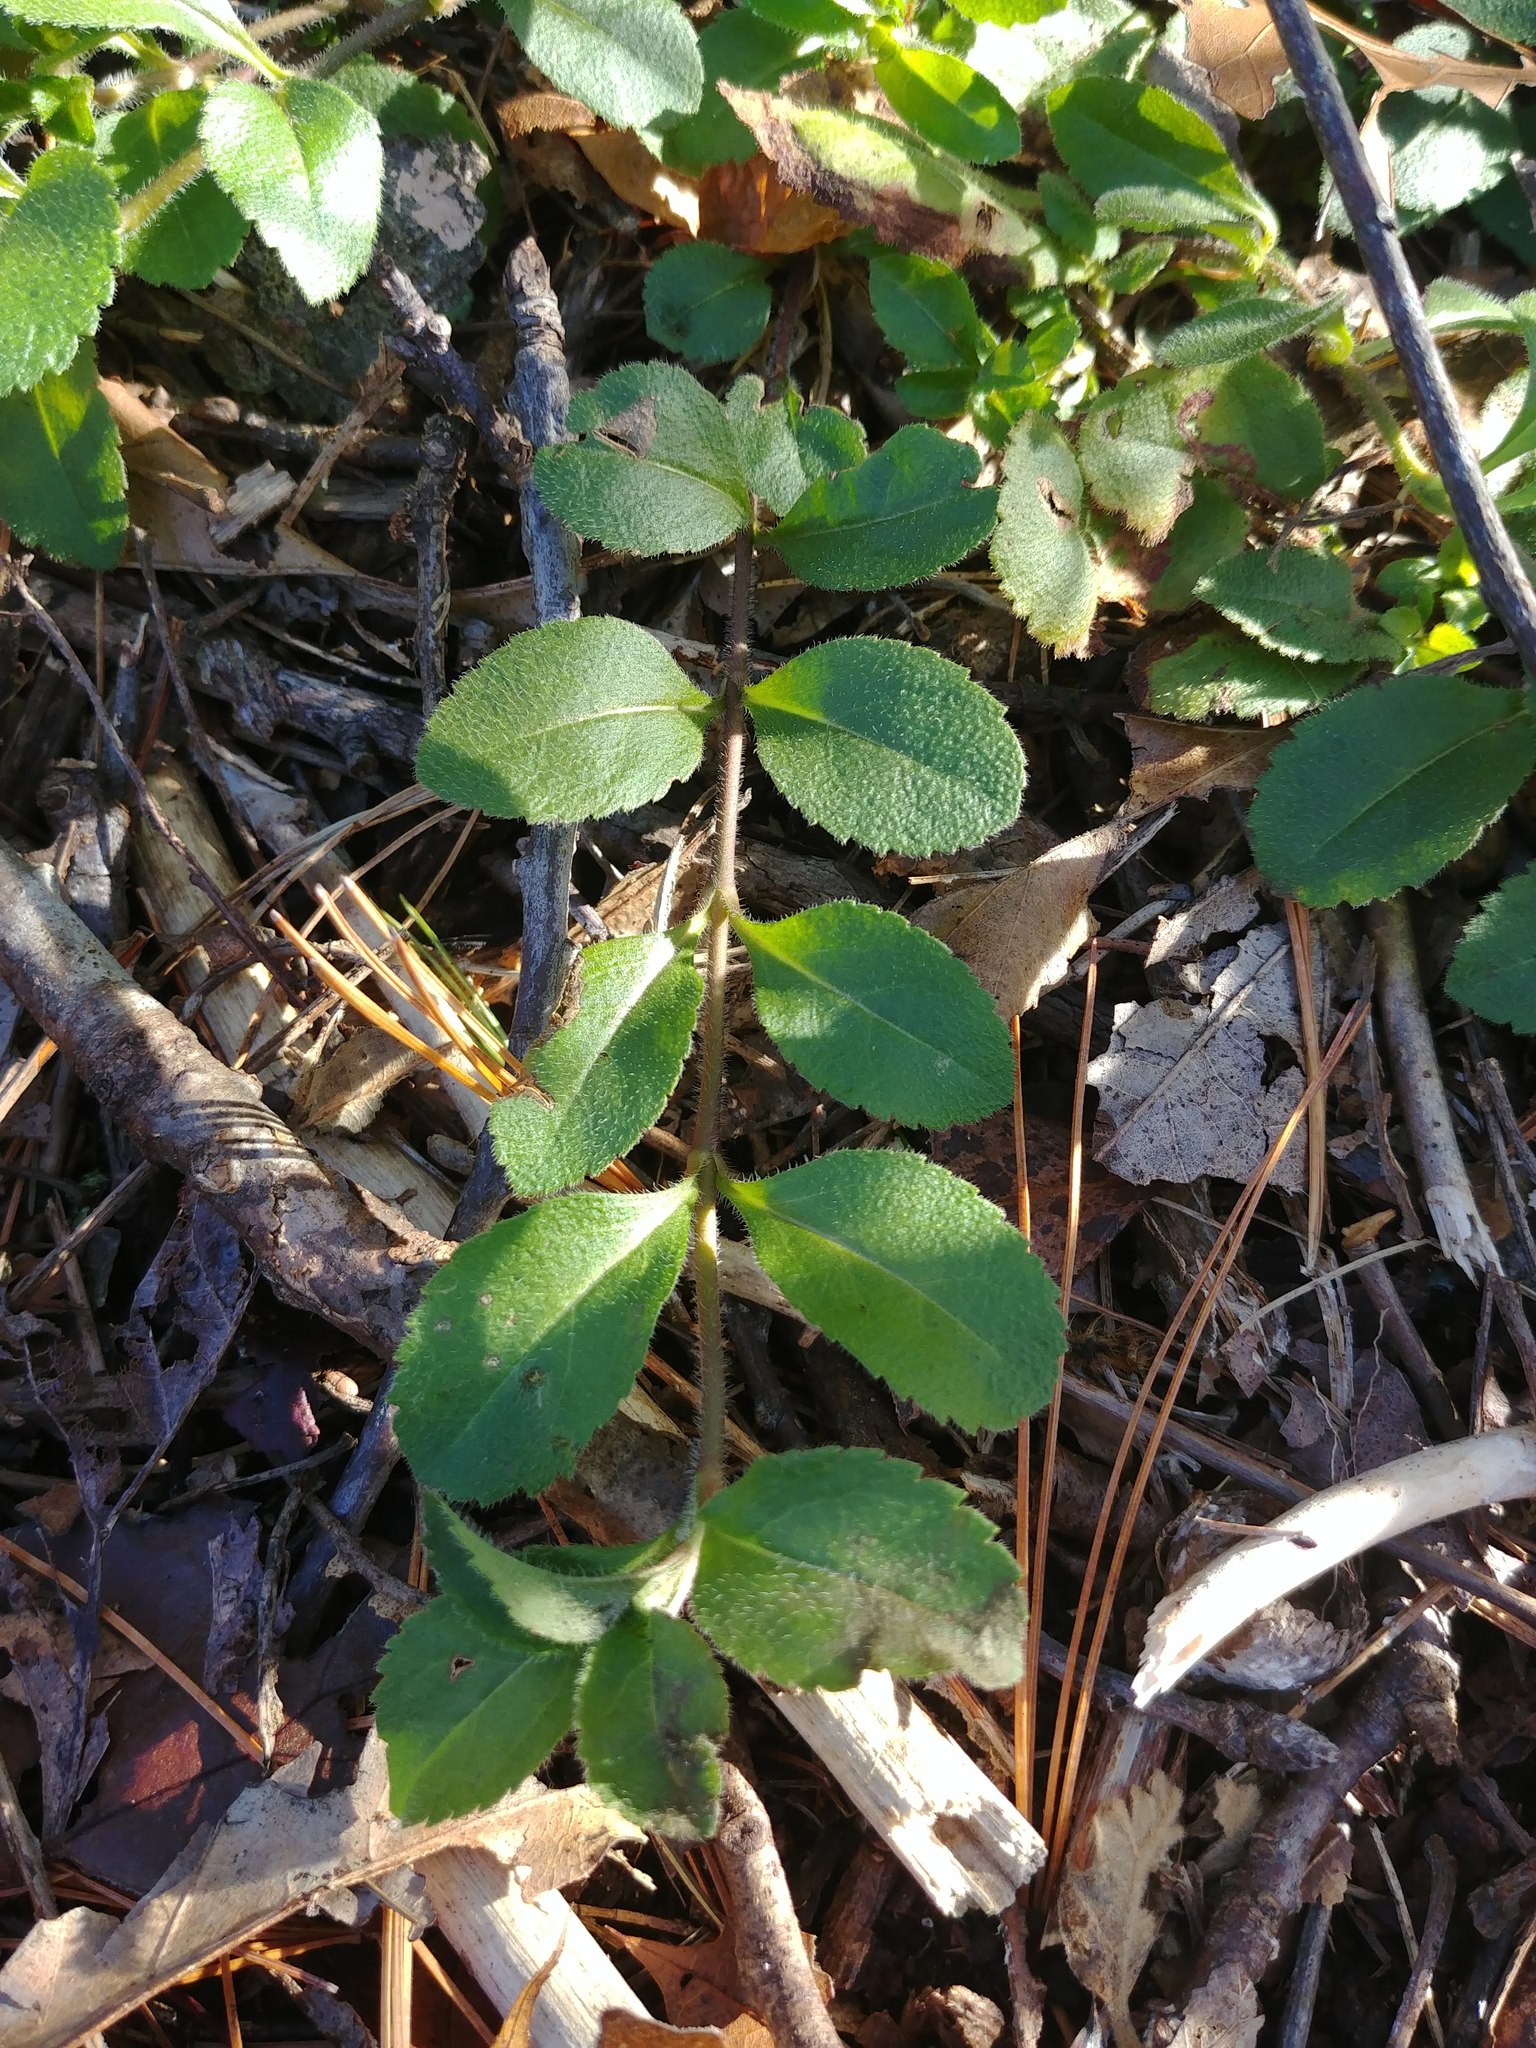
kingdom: Plantae
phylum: Tracheophyta
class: Magnoliopsida
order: Lamiales
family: Plantaginaceae
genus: Veronica
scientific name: Veronica officinalis
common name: Common speedwell
